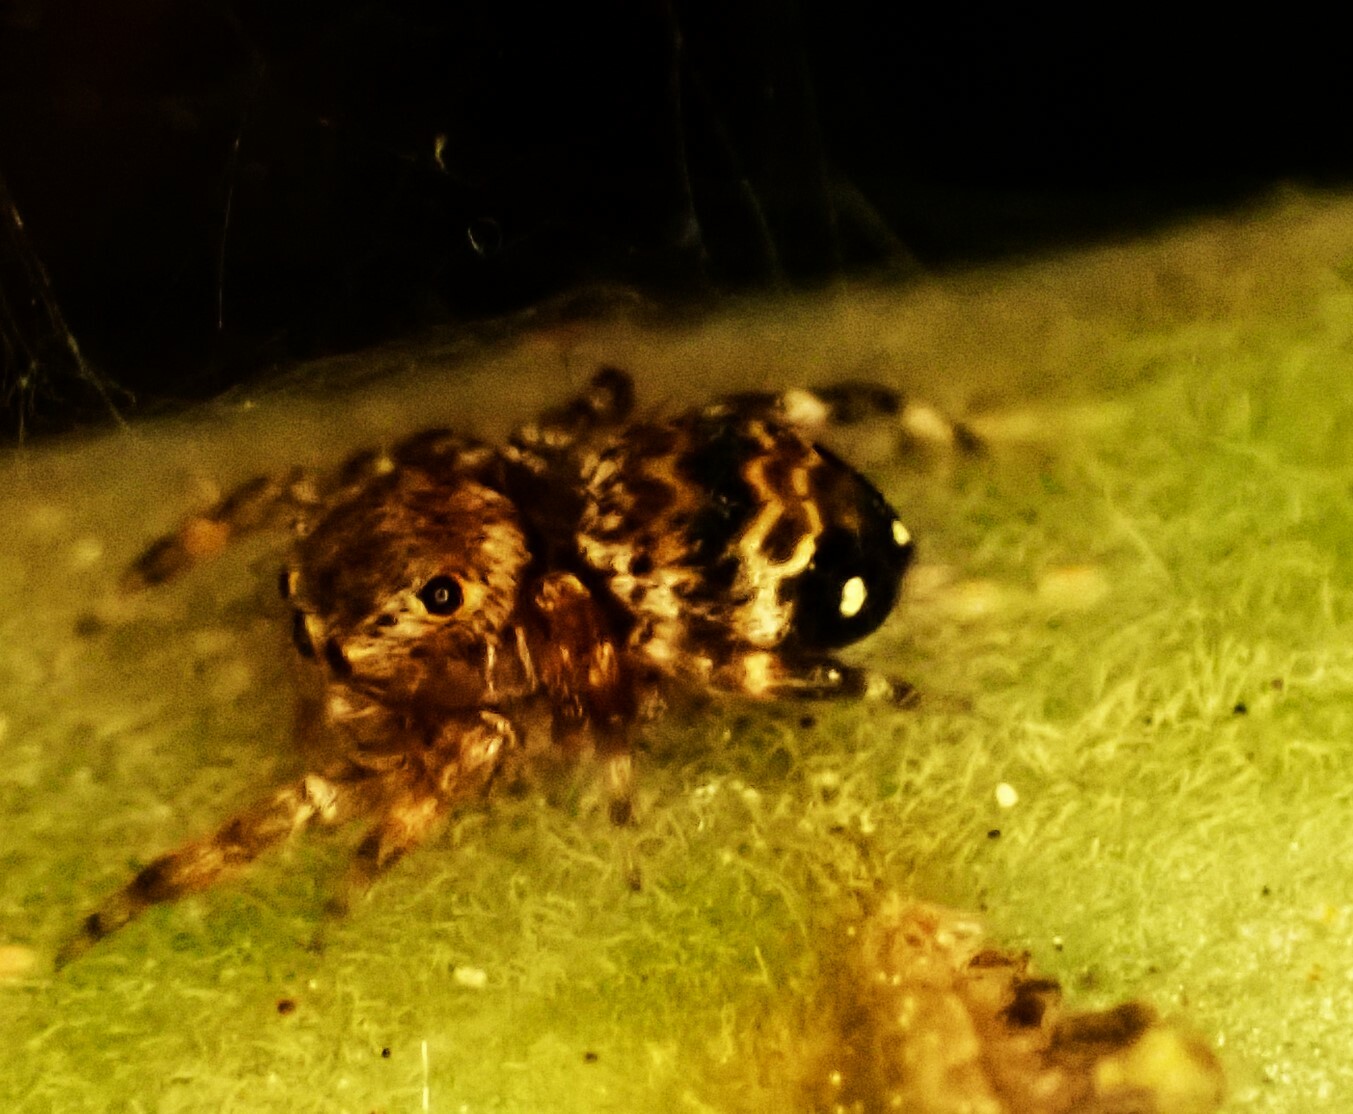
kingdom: Animalia
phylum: Arthropoda
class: Arachnida
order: Araneae
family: Salticidae
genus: Thorelliola
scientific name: Thorelliola ensifera
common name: Jumping spider
